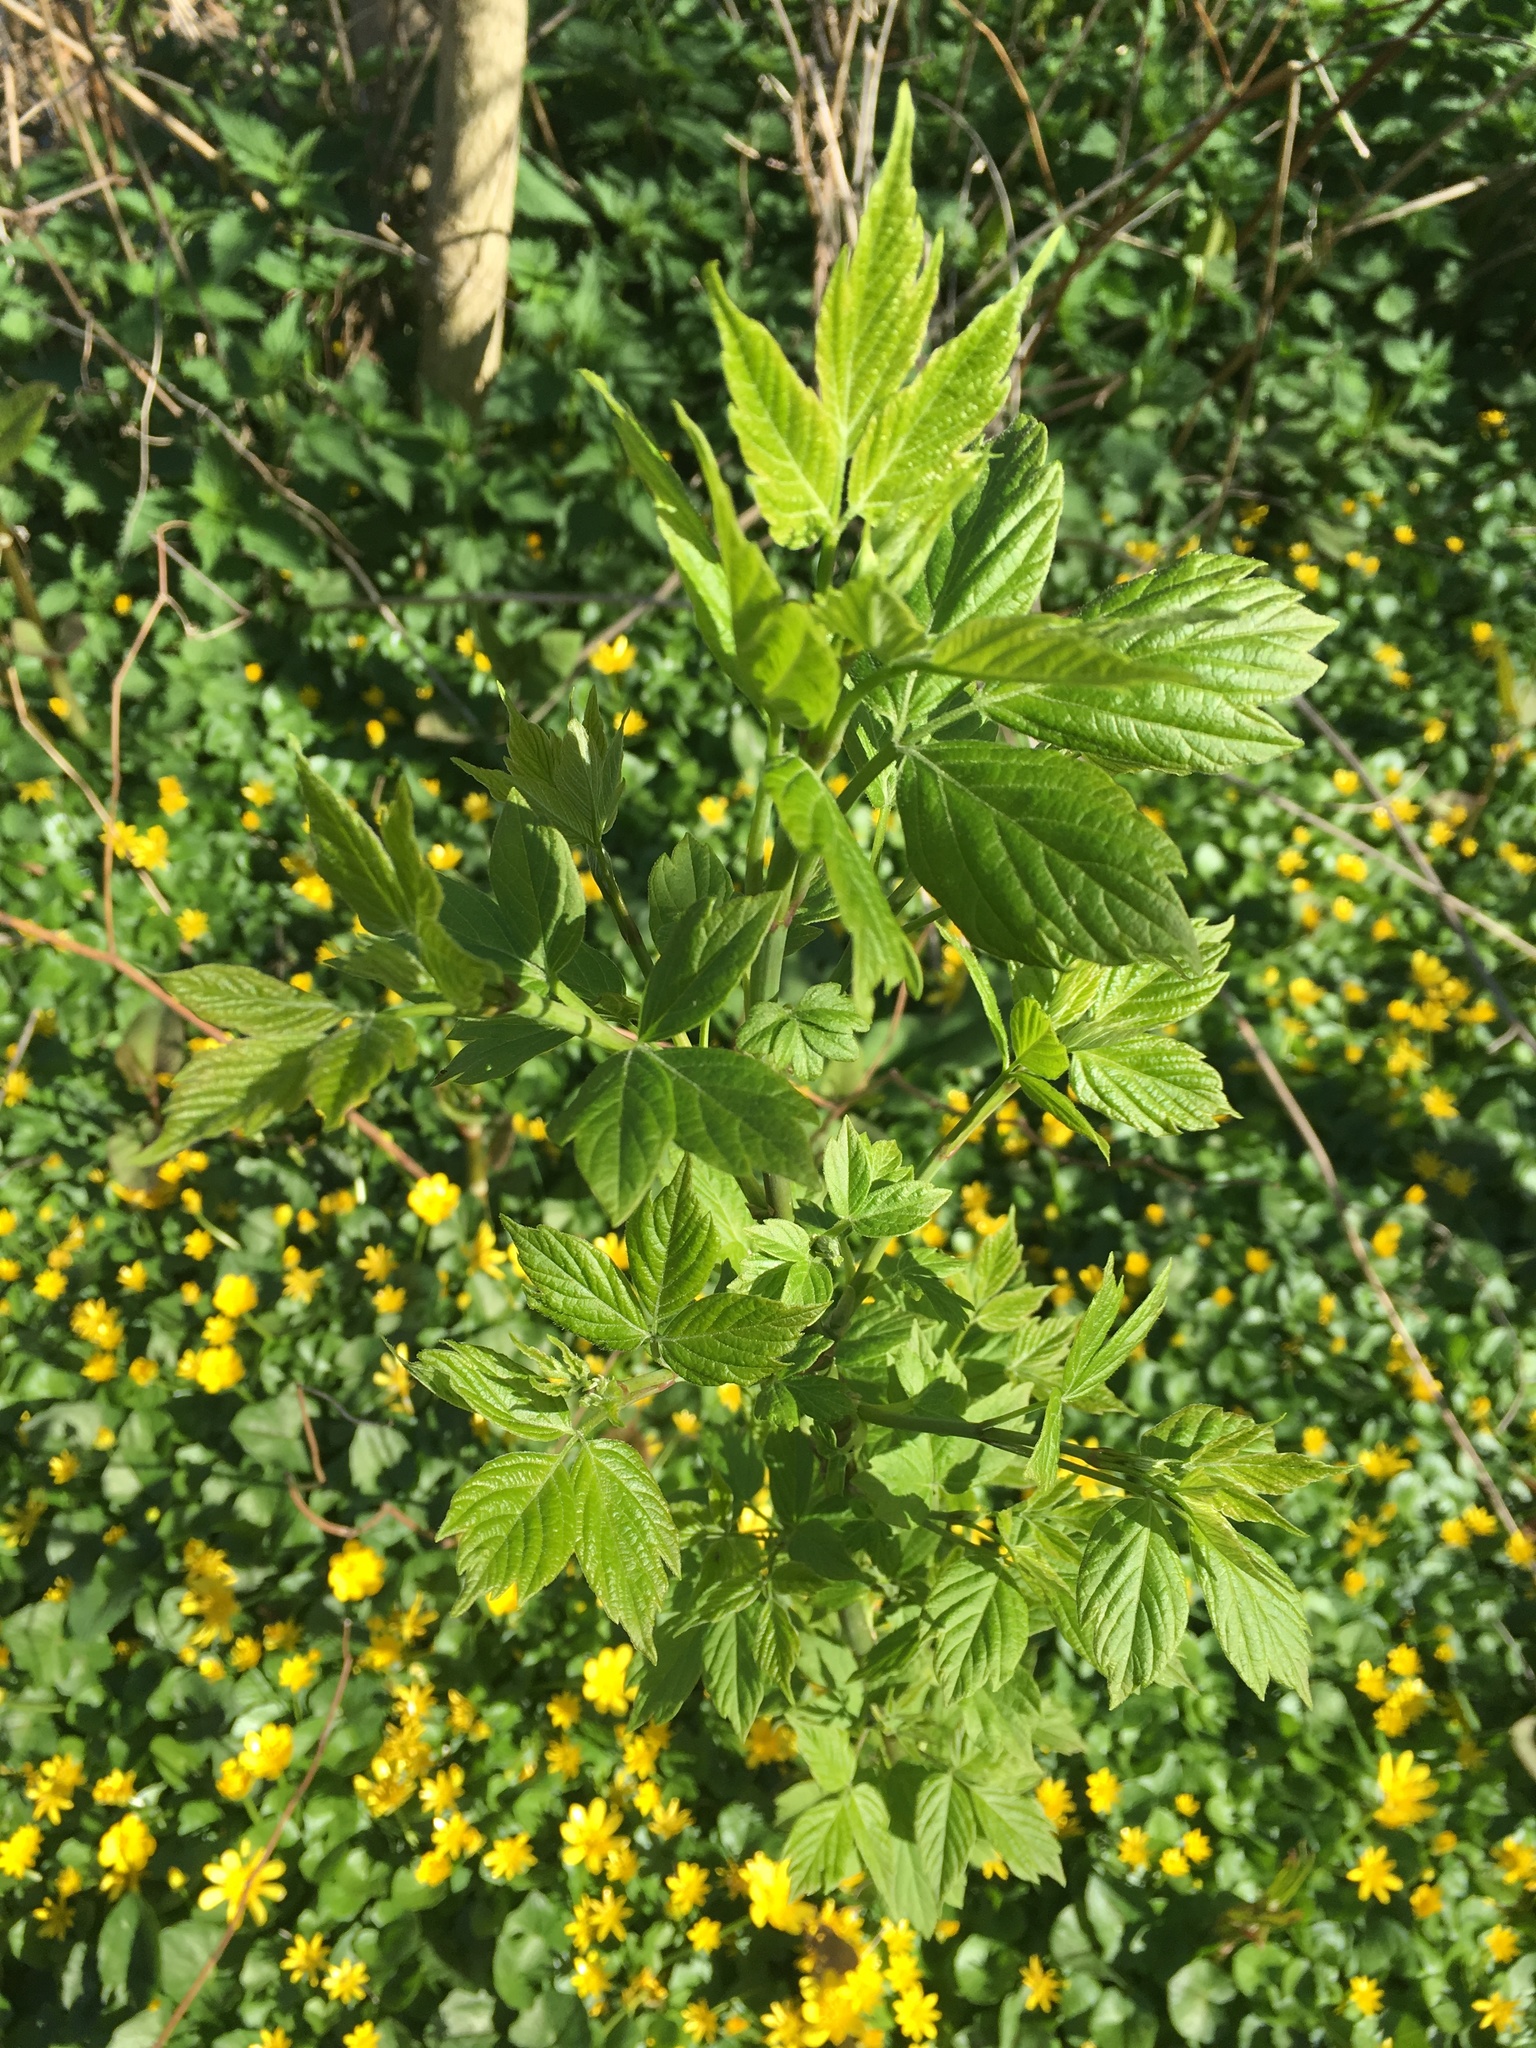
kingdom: Plantae
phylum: Tracheophyta
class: Magnoliopsida
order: Sapindales
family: Sapindaceae
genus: Acer
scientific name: Acer negundo
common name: Ashleaf maple
